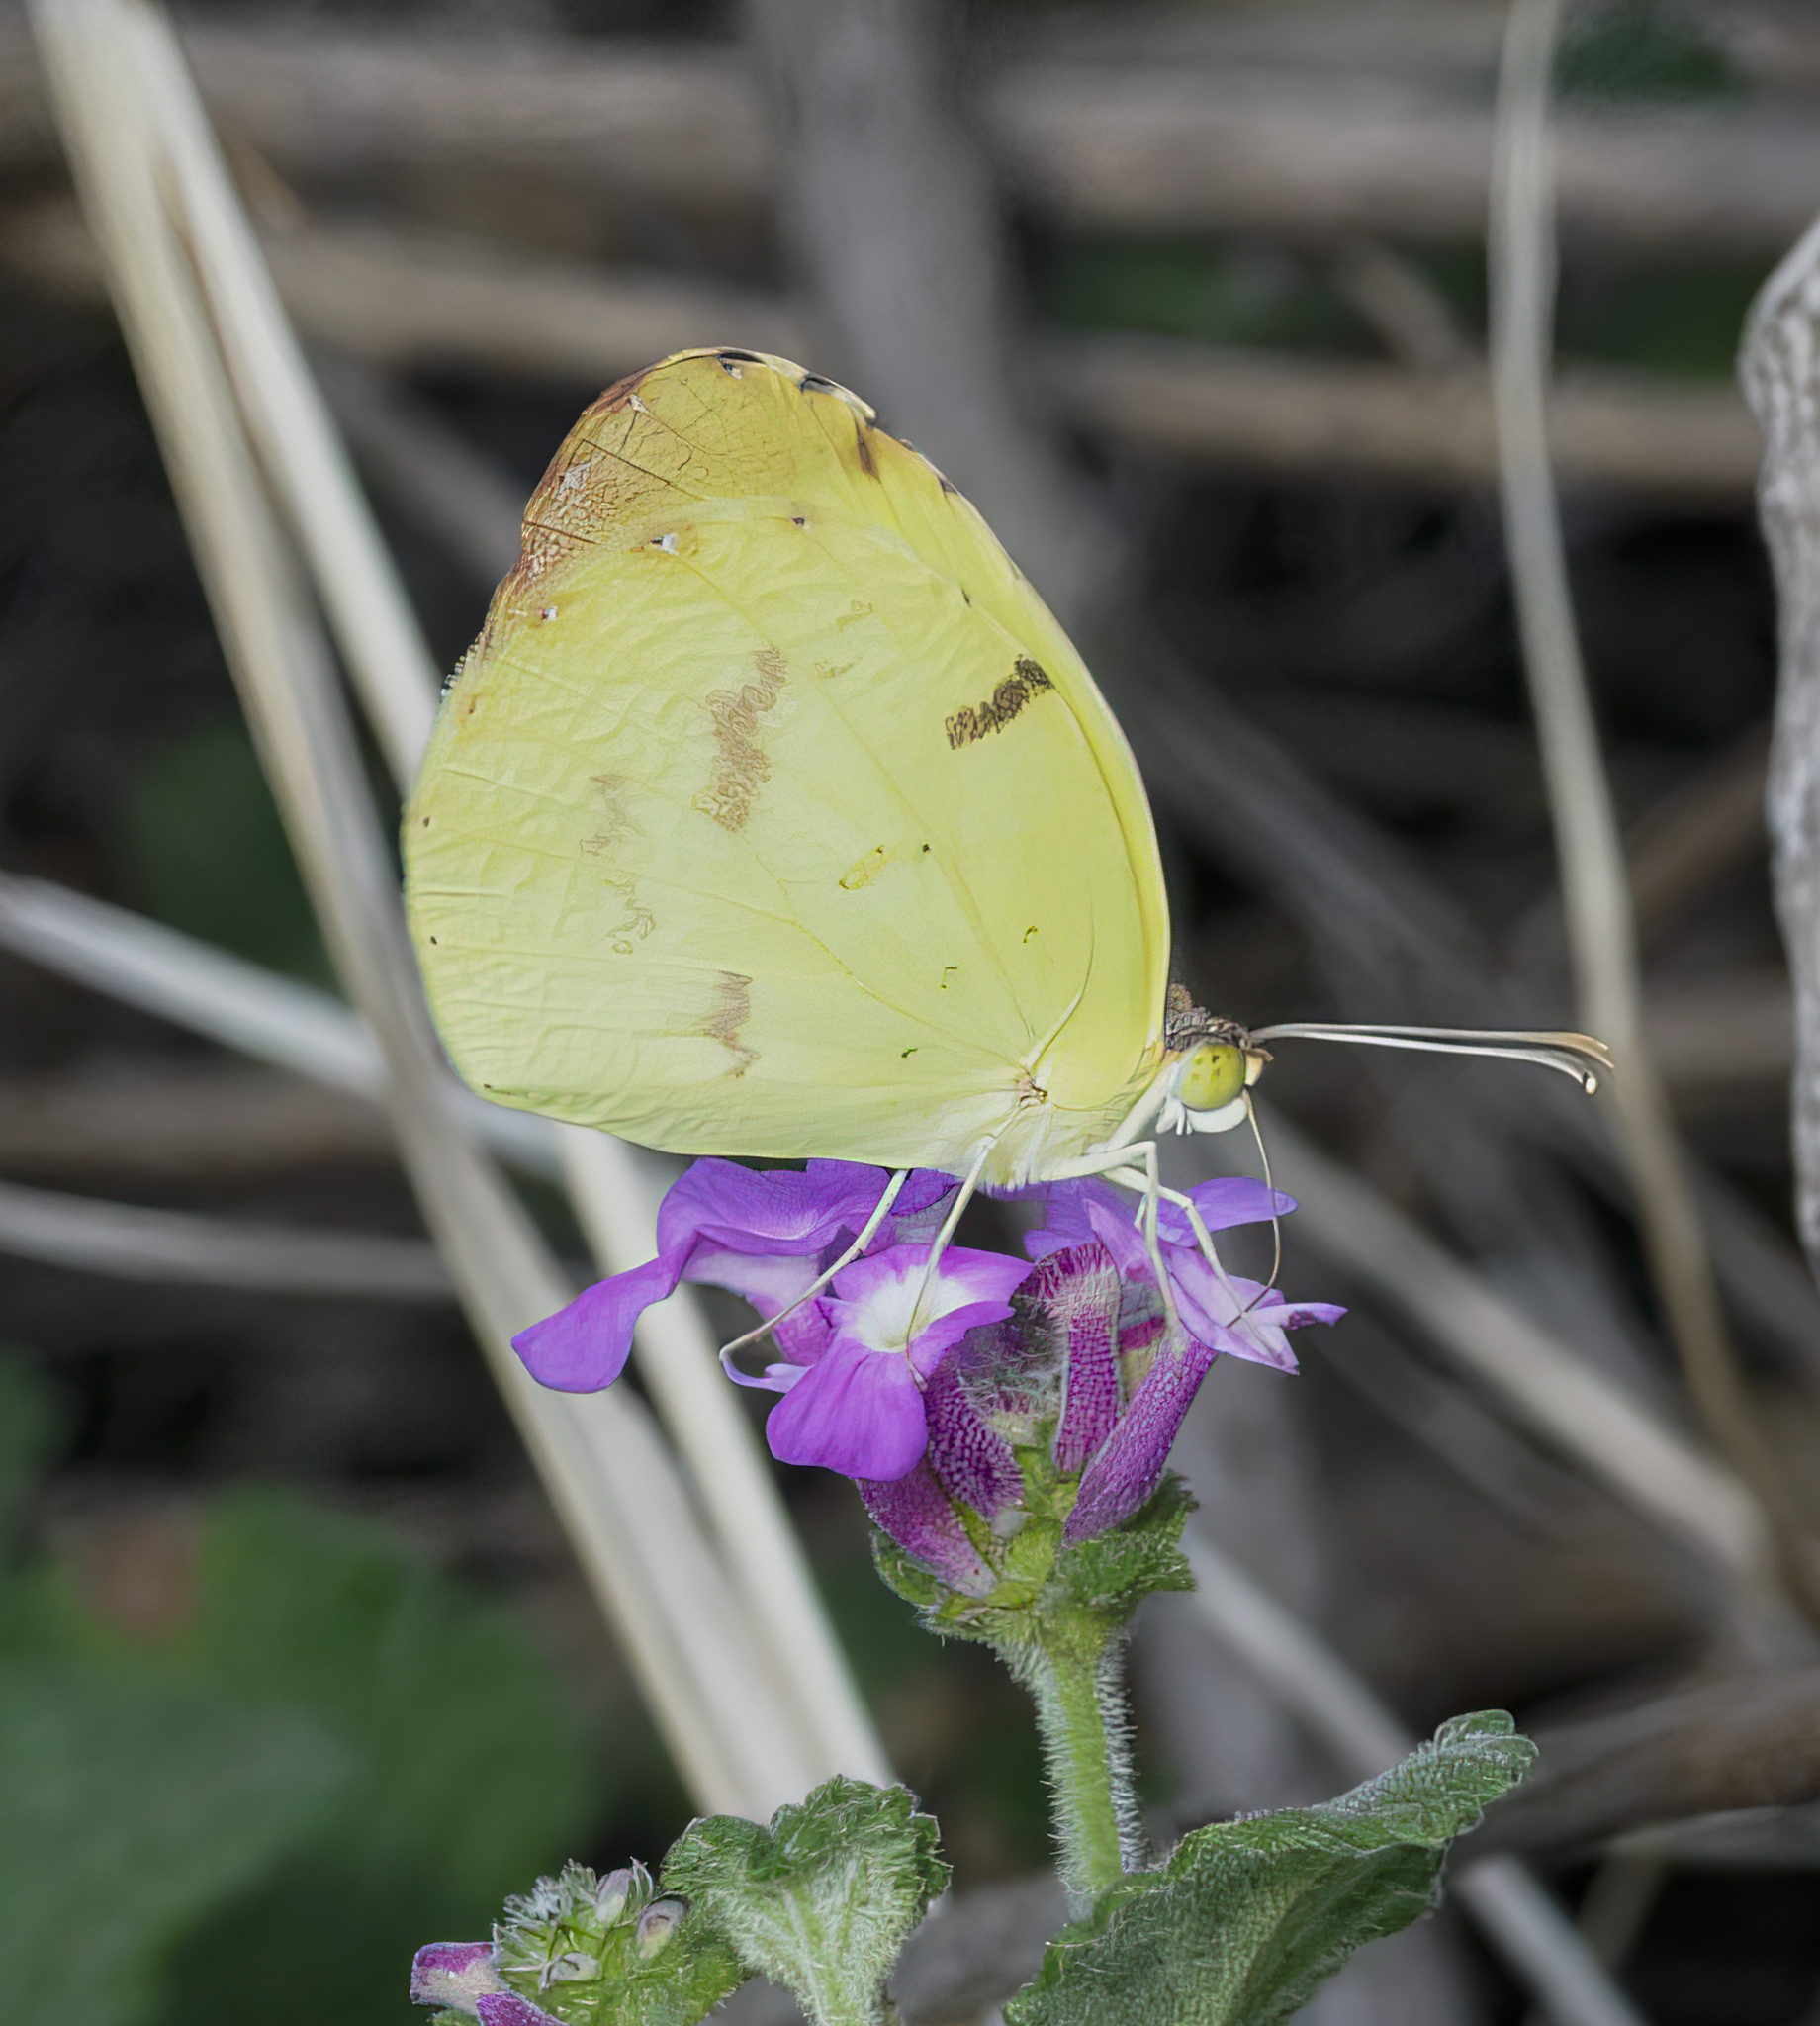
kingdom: Animalia
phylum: Arthropoda
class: Insecta
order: Lepidoptera
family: Pieridae
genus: Teriocolias
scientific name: Teriocolias
